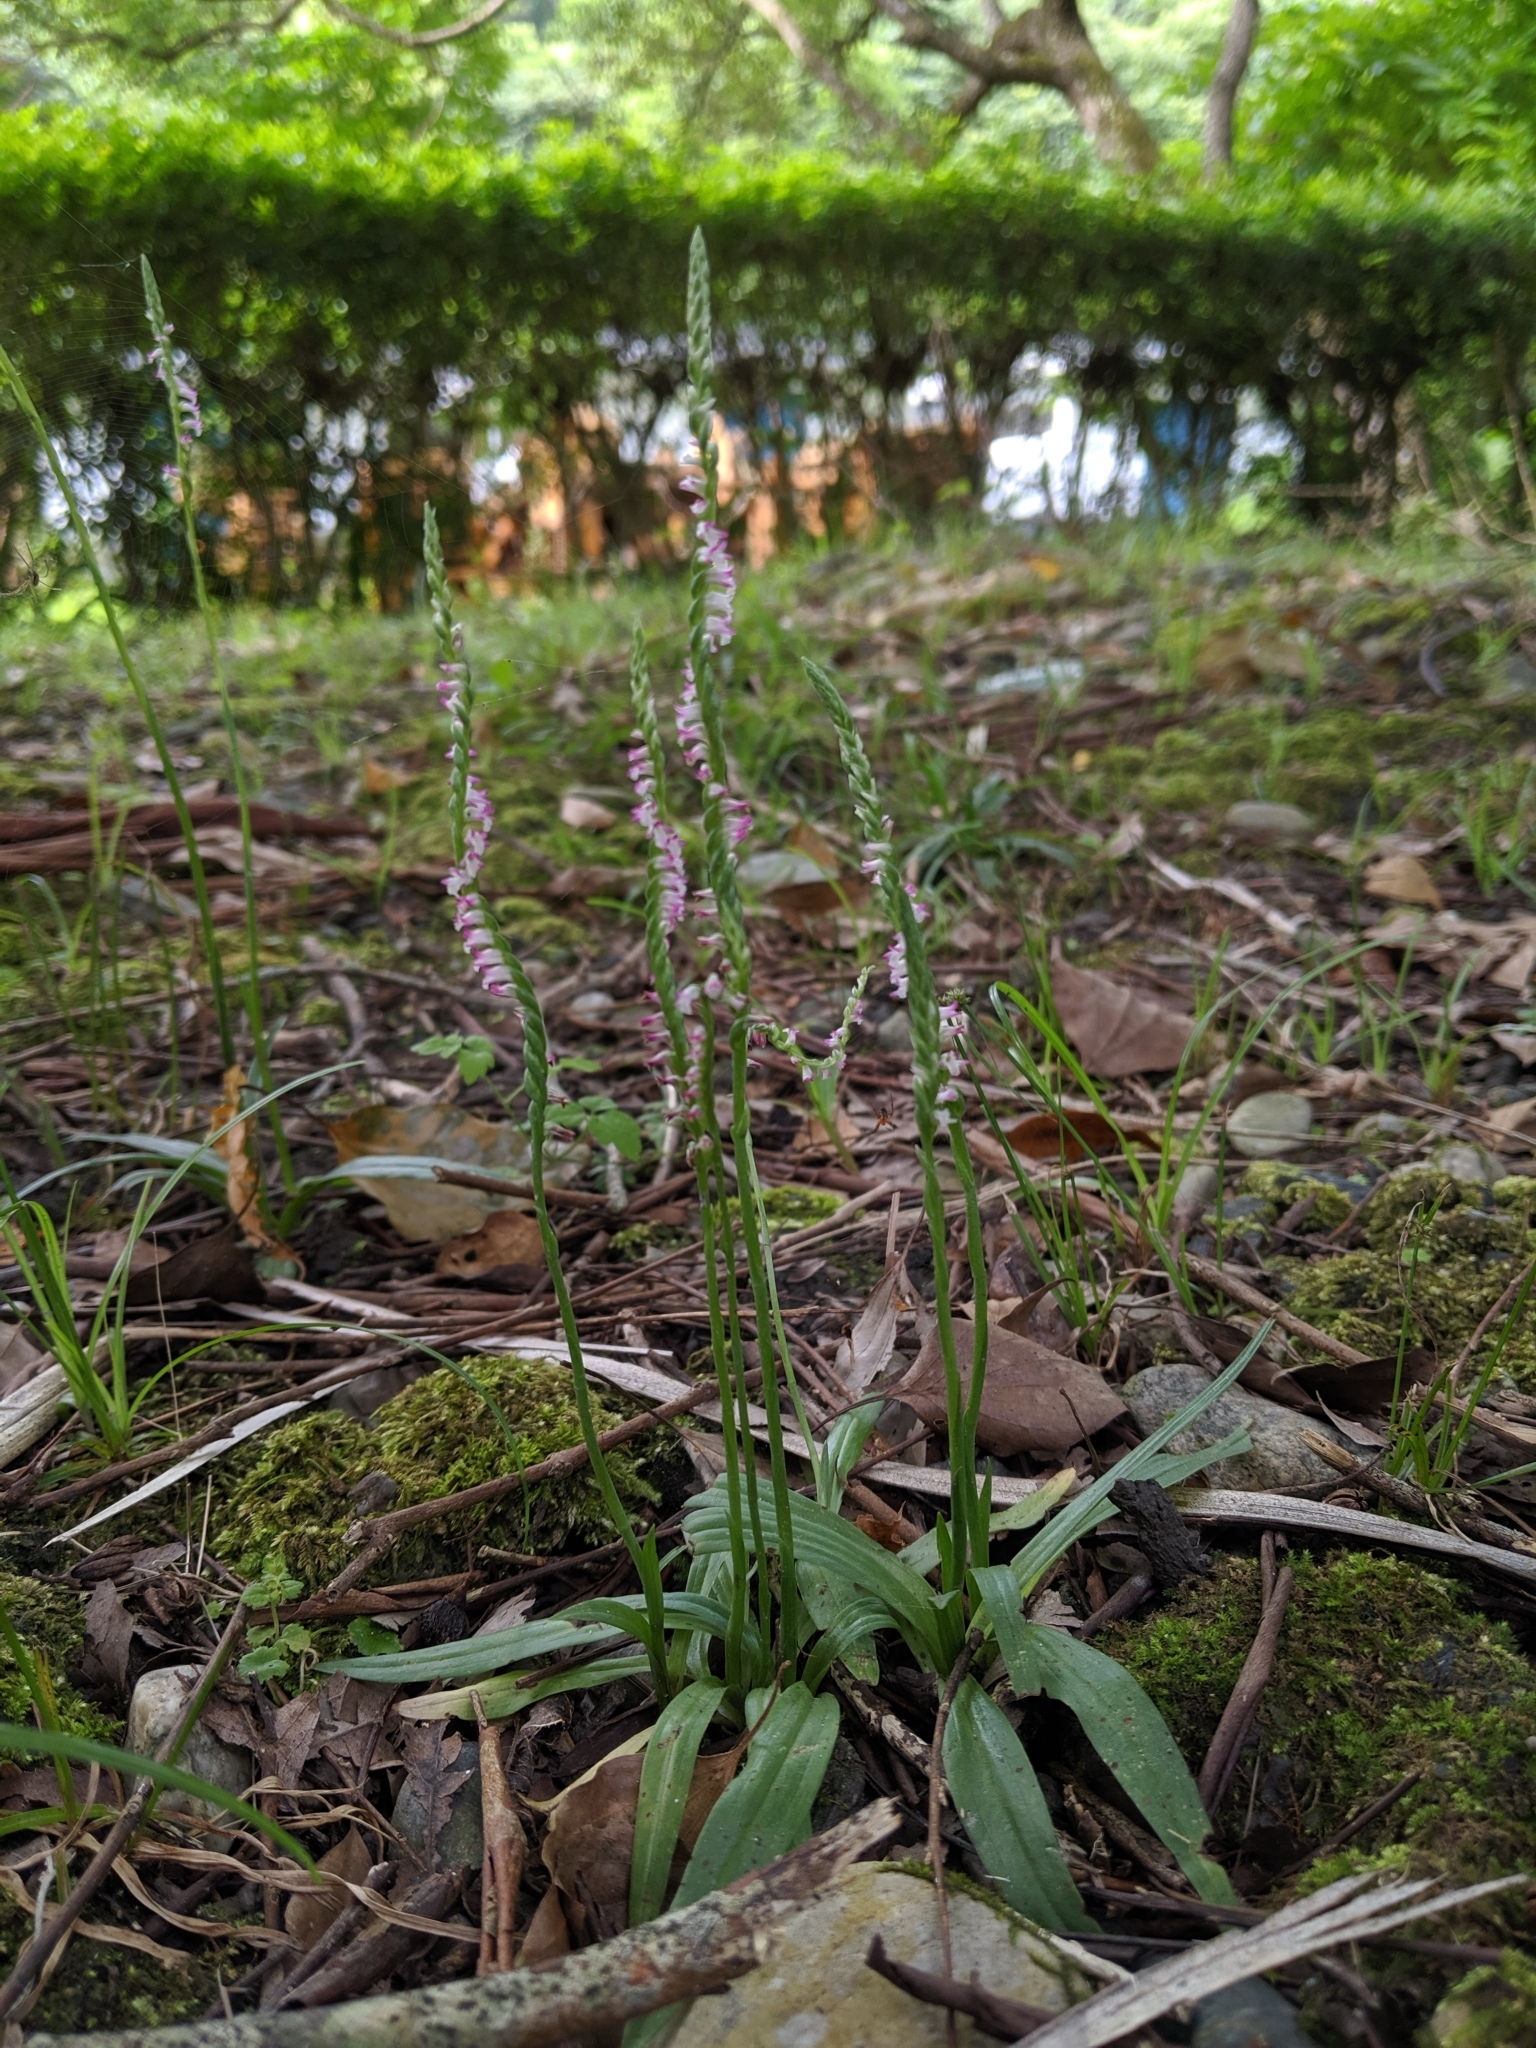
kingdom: Plantae
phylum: Tracheophyta
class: Liliopsida
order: Asparagales
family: Orchidaceae
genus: Spiranthes
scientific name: Spiranthes sinensis
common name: Chinese spiranthes
